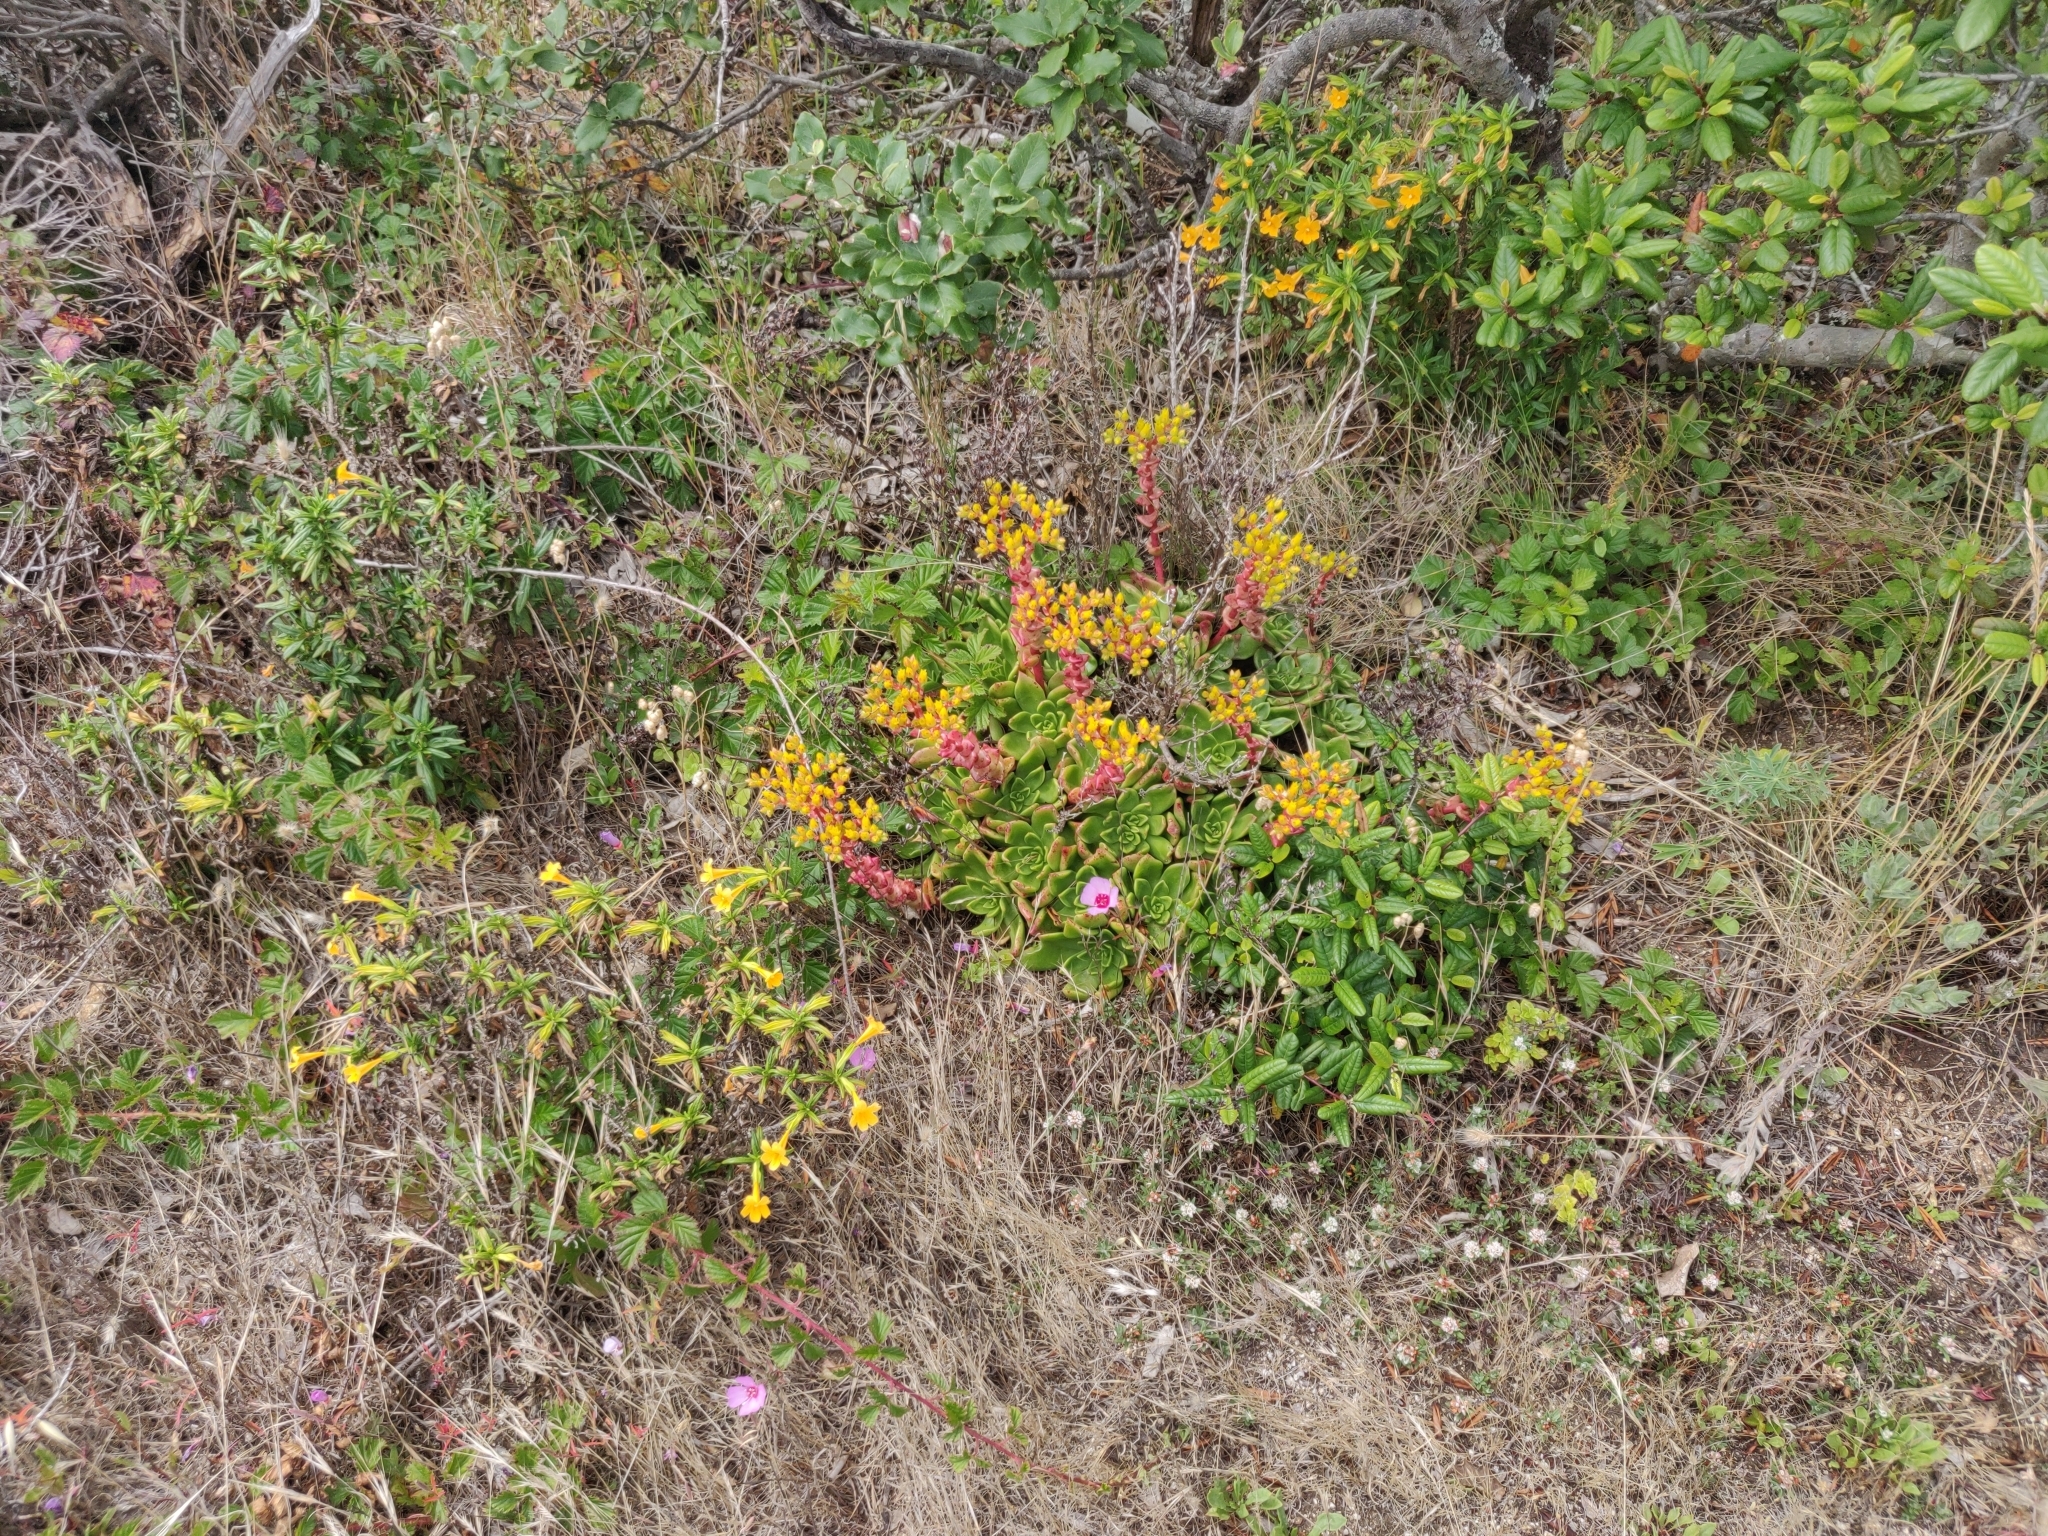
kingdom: Plantae
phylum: Tracheophyta
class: Magnoliopsida
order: Lamiales
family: Lamiaceae
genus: Micromeria
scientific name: Micromeria douglasii
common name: Yerba buena
